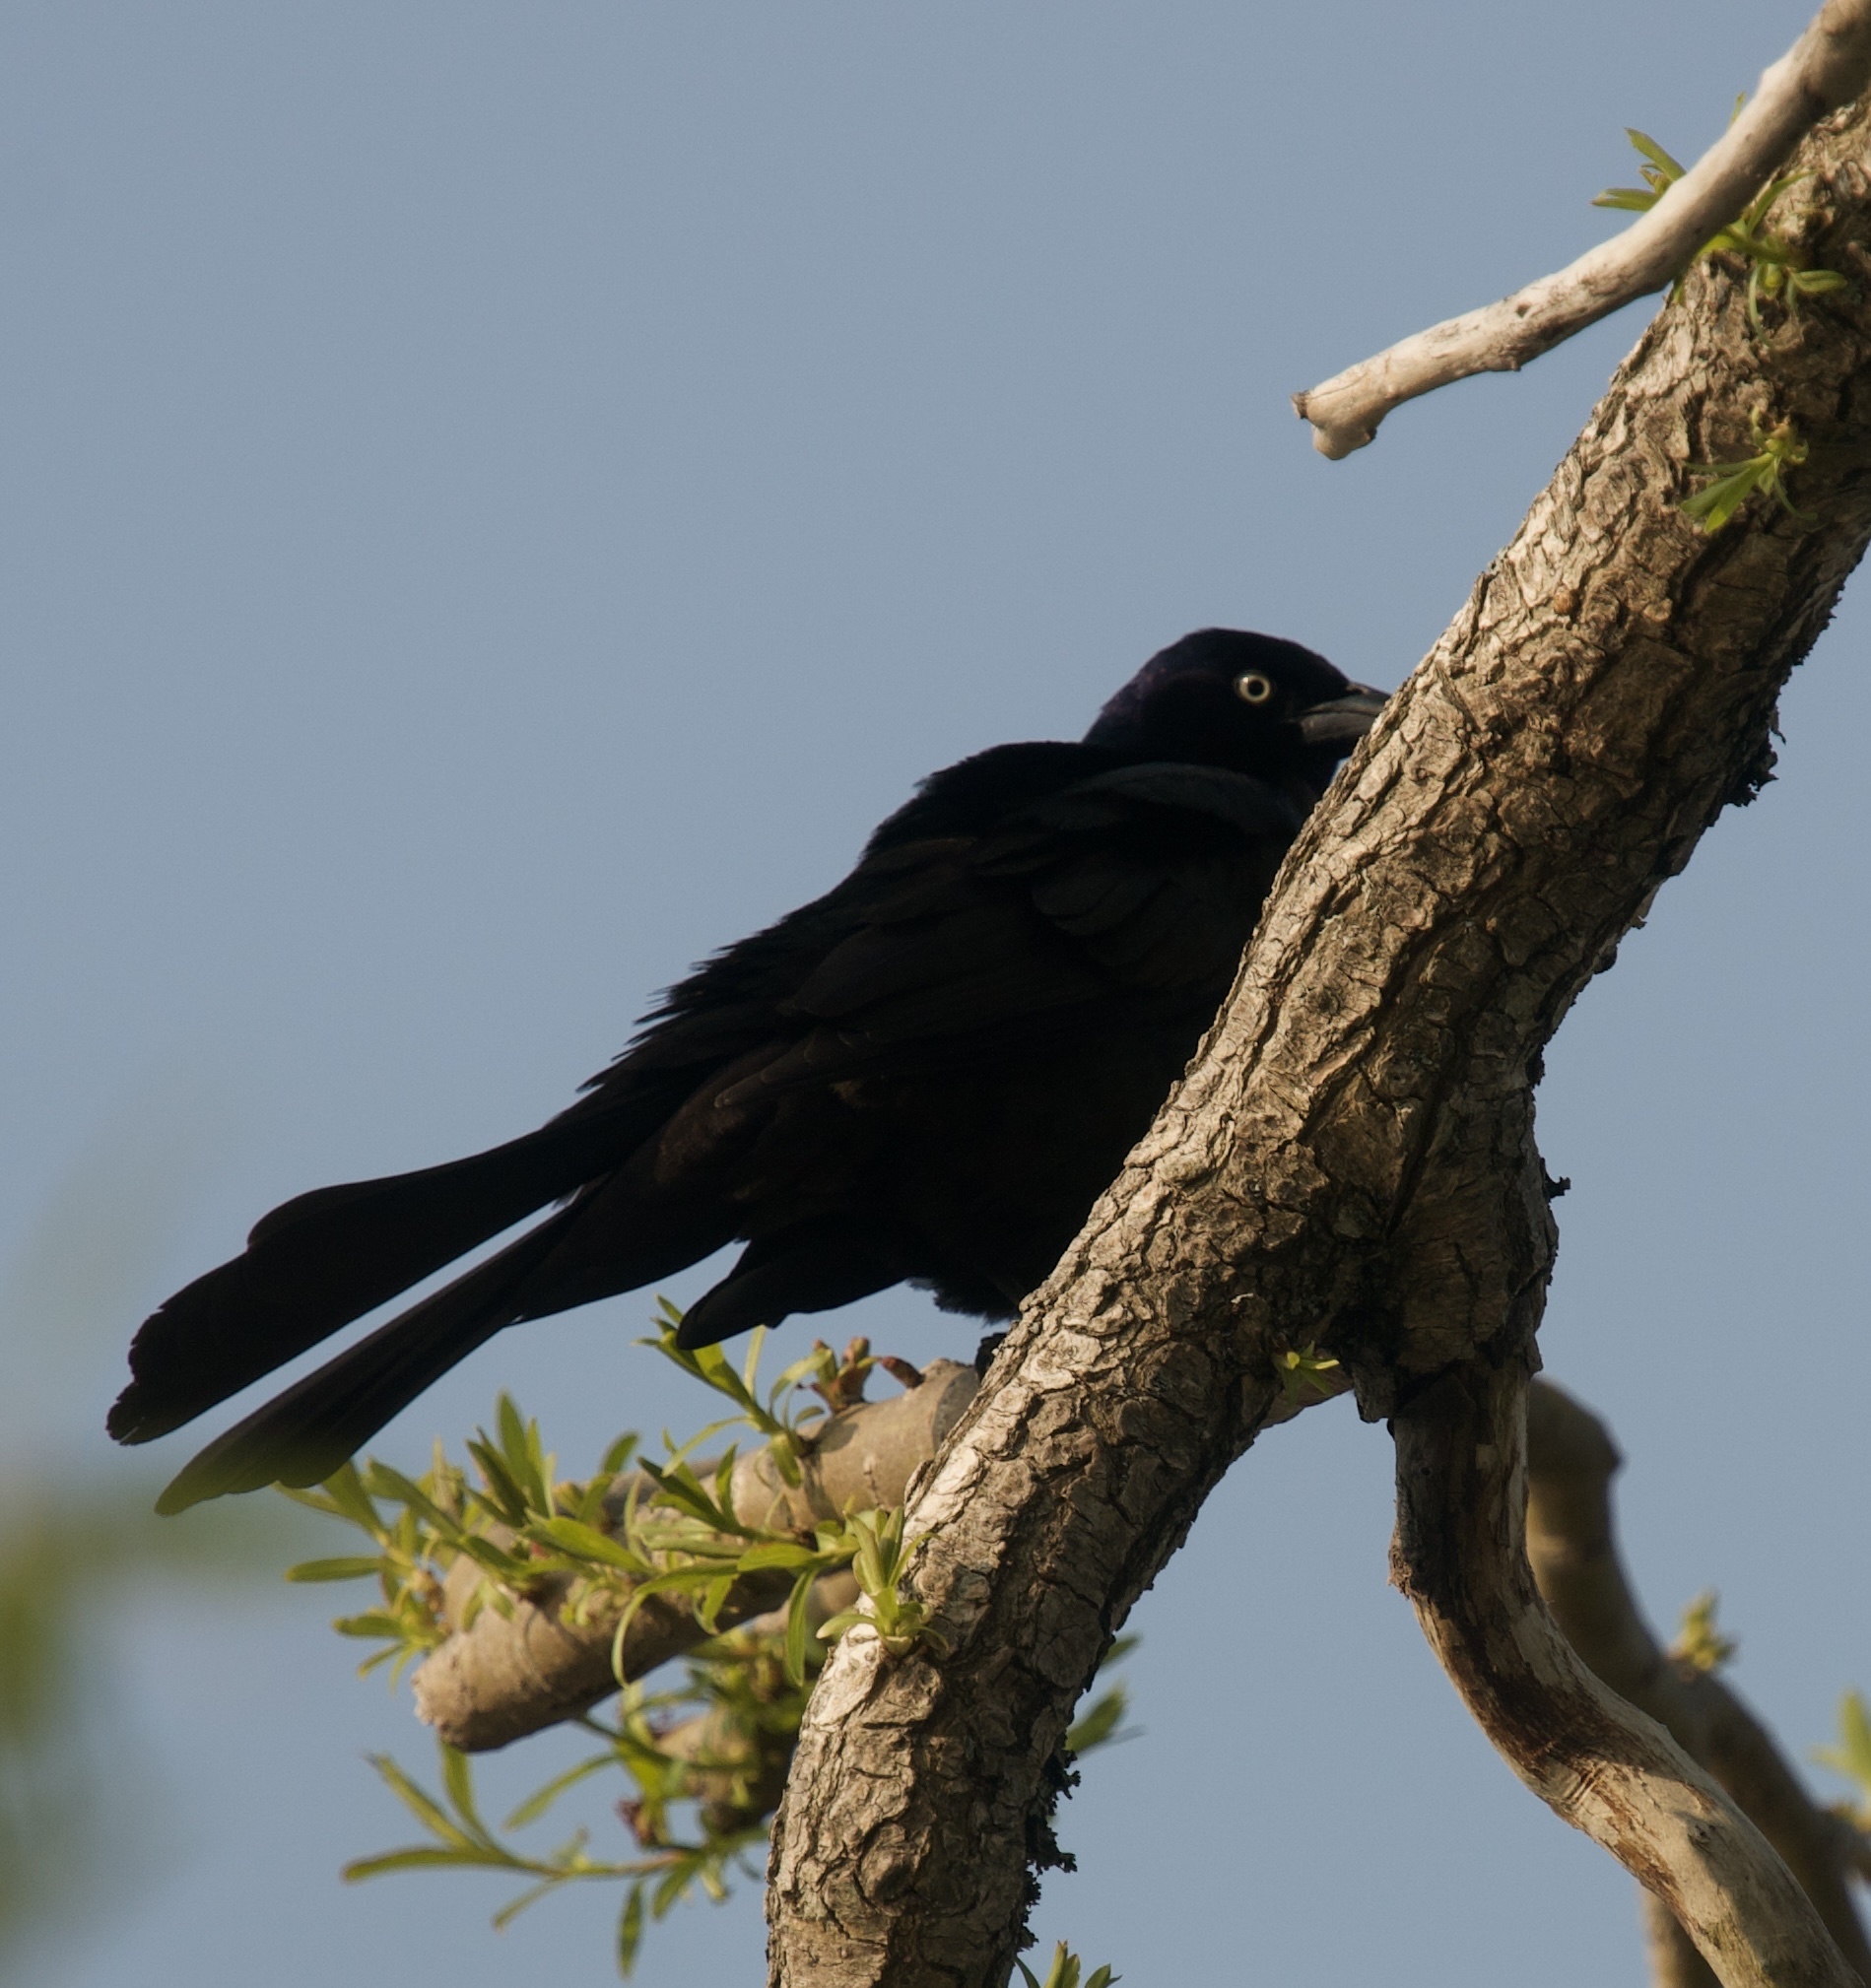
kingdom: Animalia
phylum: Chordata
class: Aves
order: Passeriformes
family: Icteridae
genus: Quiscalus
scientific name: Quiscalus quiscula
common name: Common grackle
